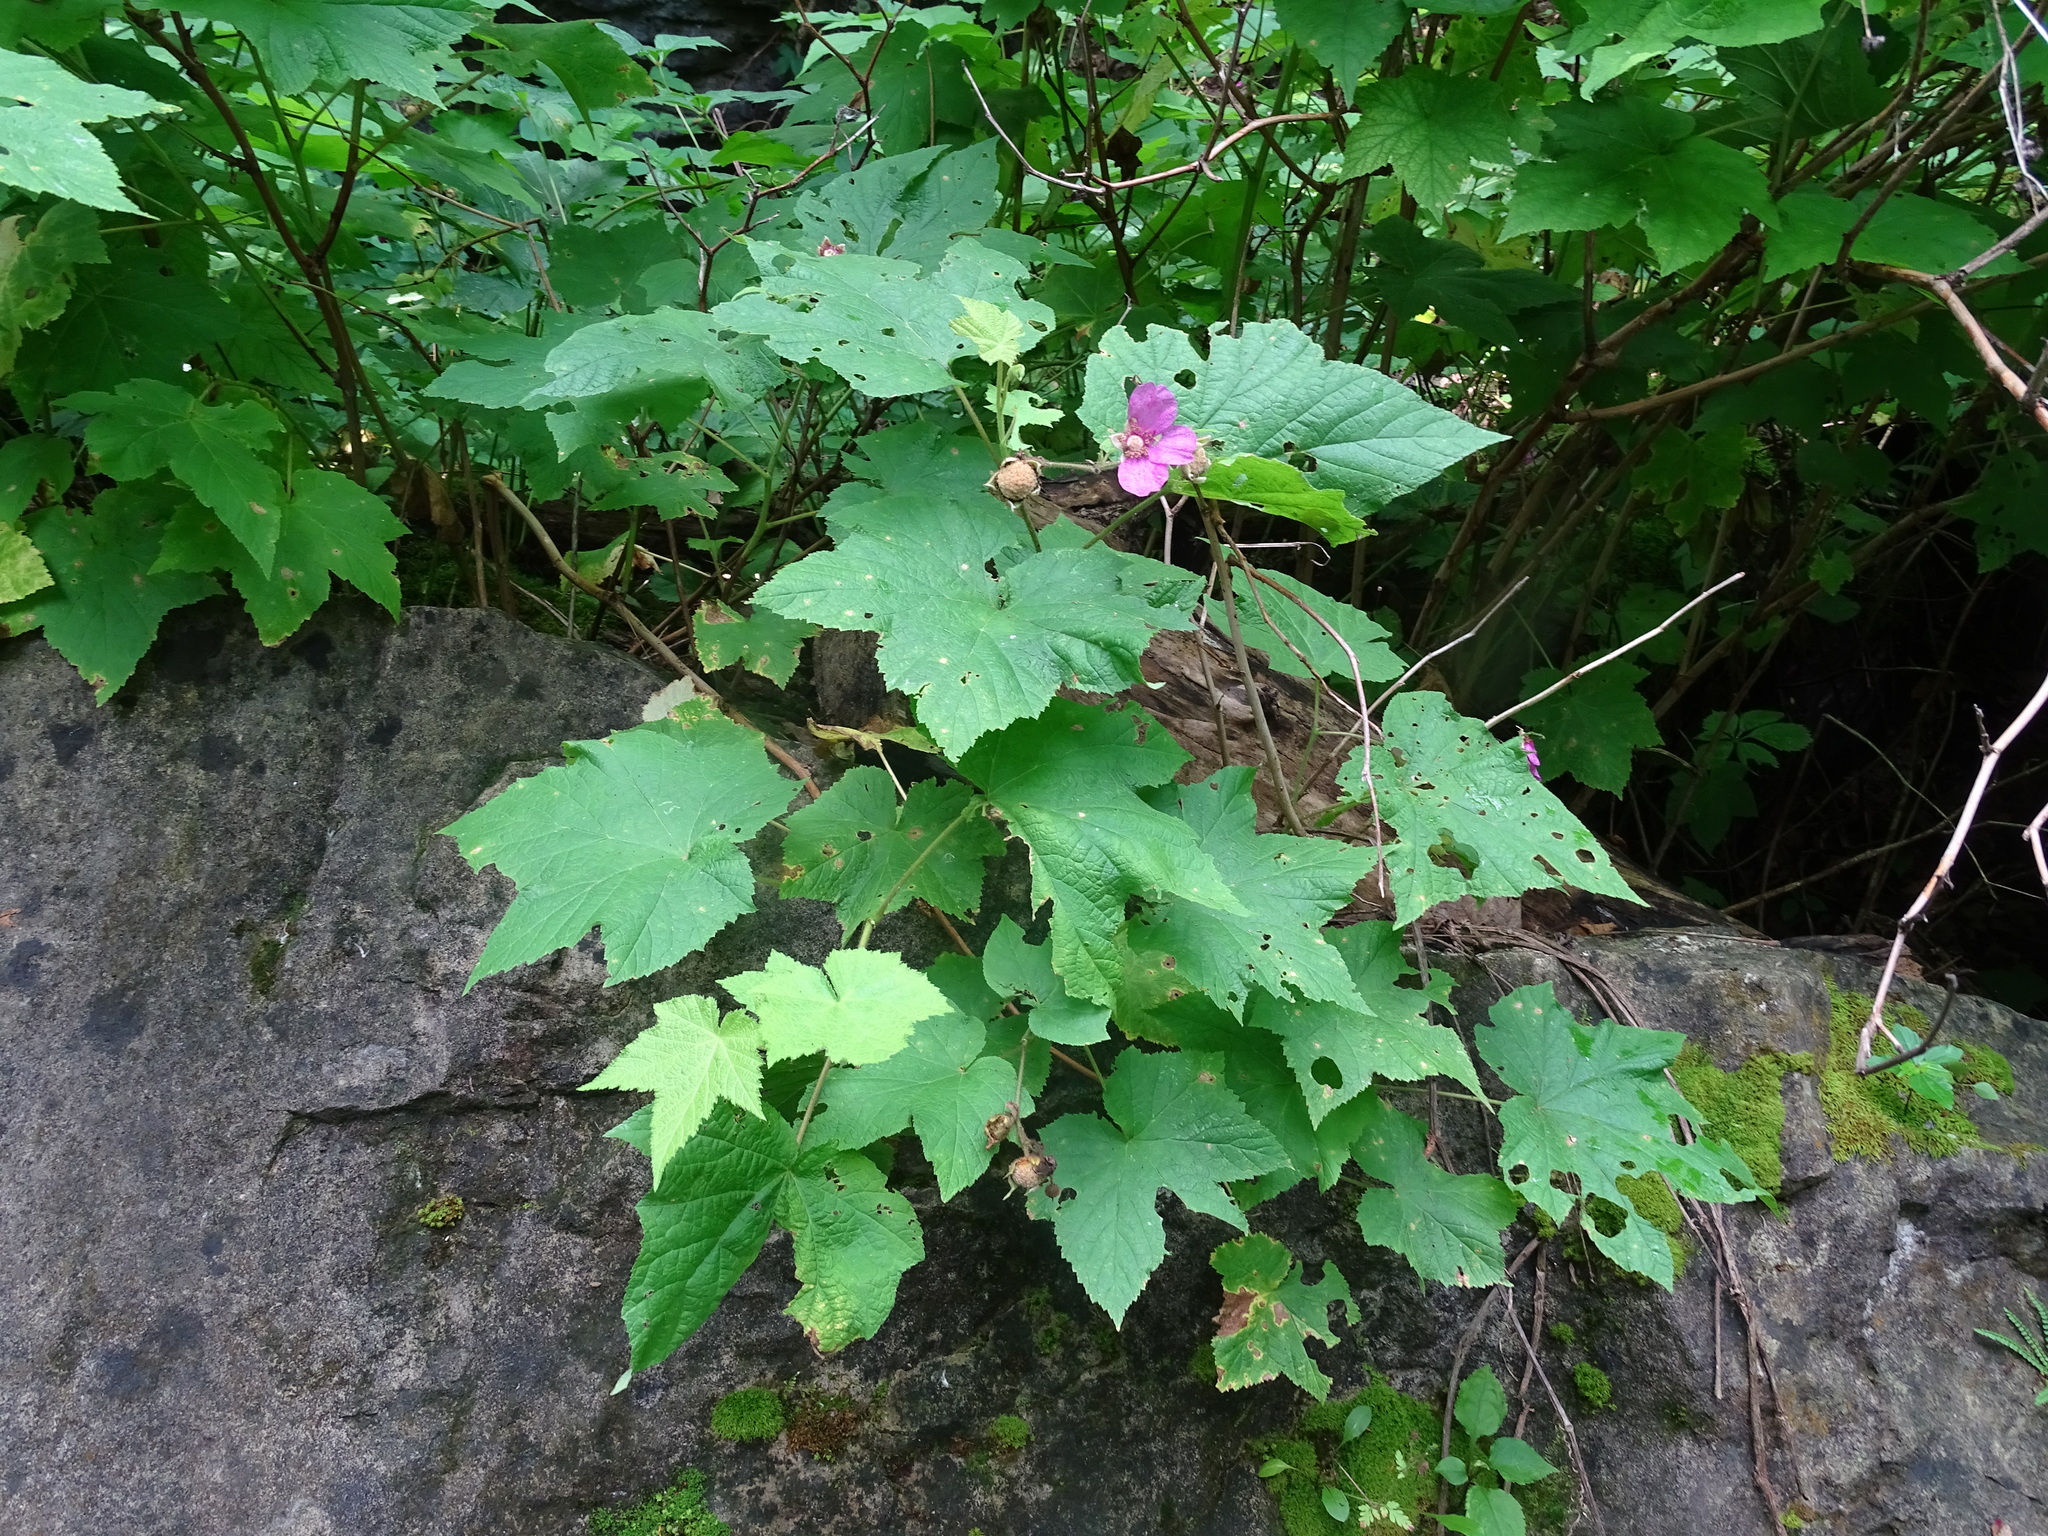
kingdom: Plantae
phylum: Tracheophyta
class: Magnoliopsida
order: Rosales
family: Rosaceae
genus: Rubus
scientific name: Rubus odoratus
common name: Purple-flowered raspberry
